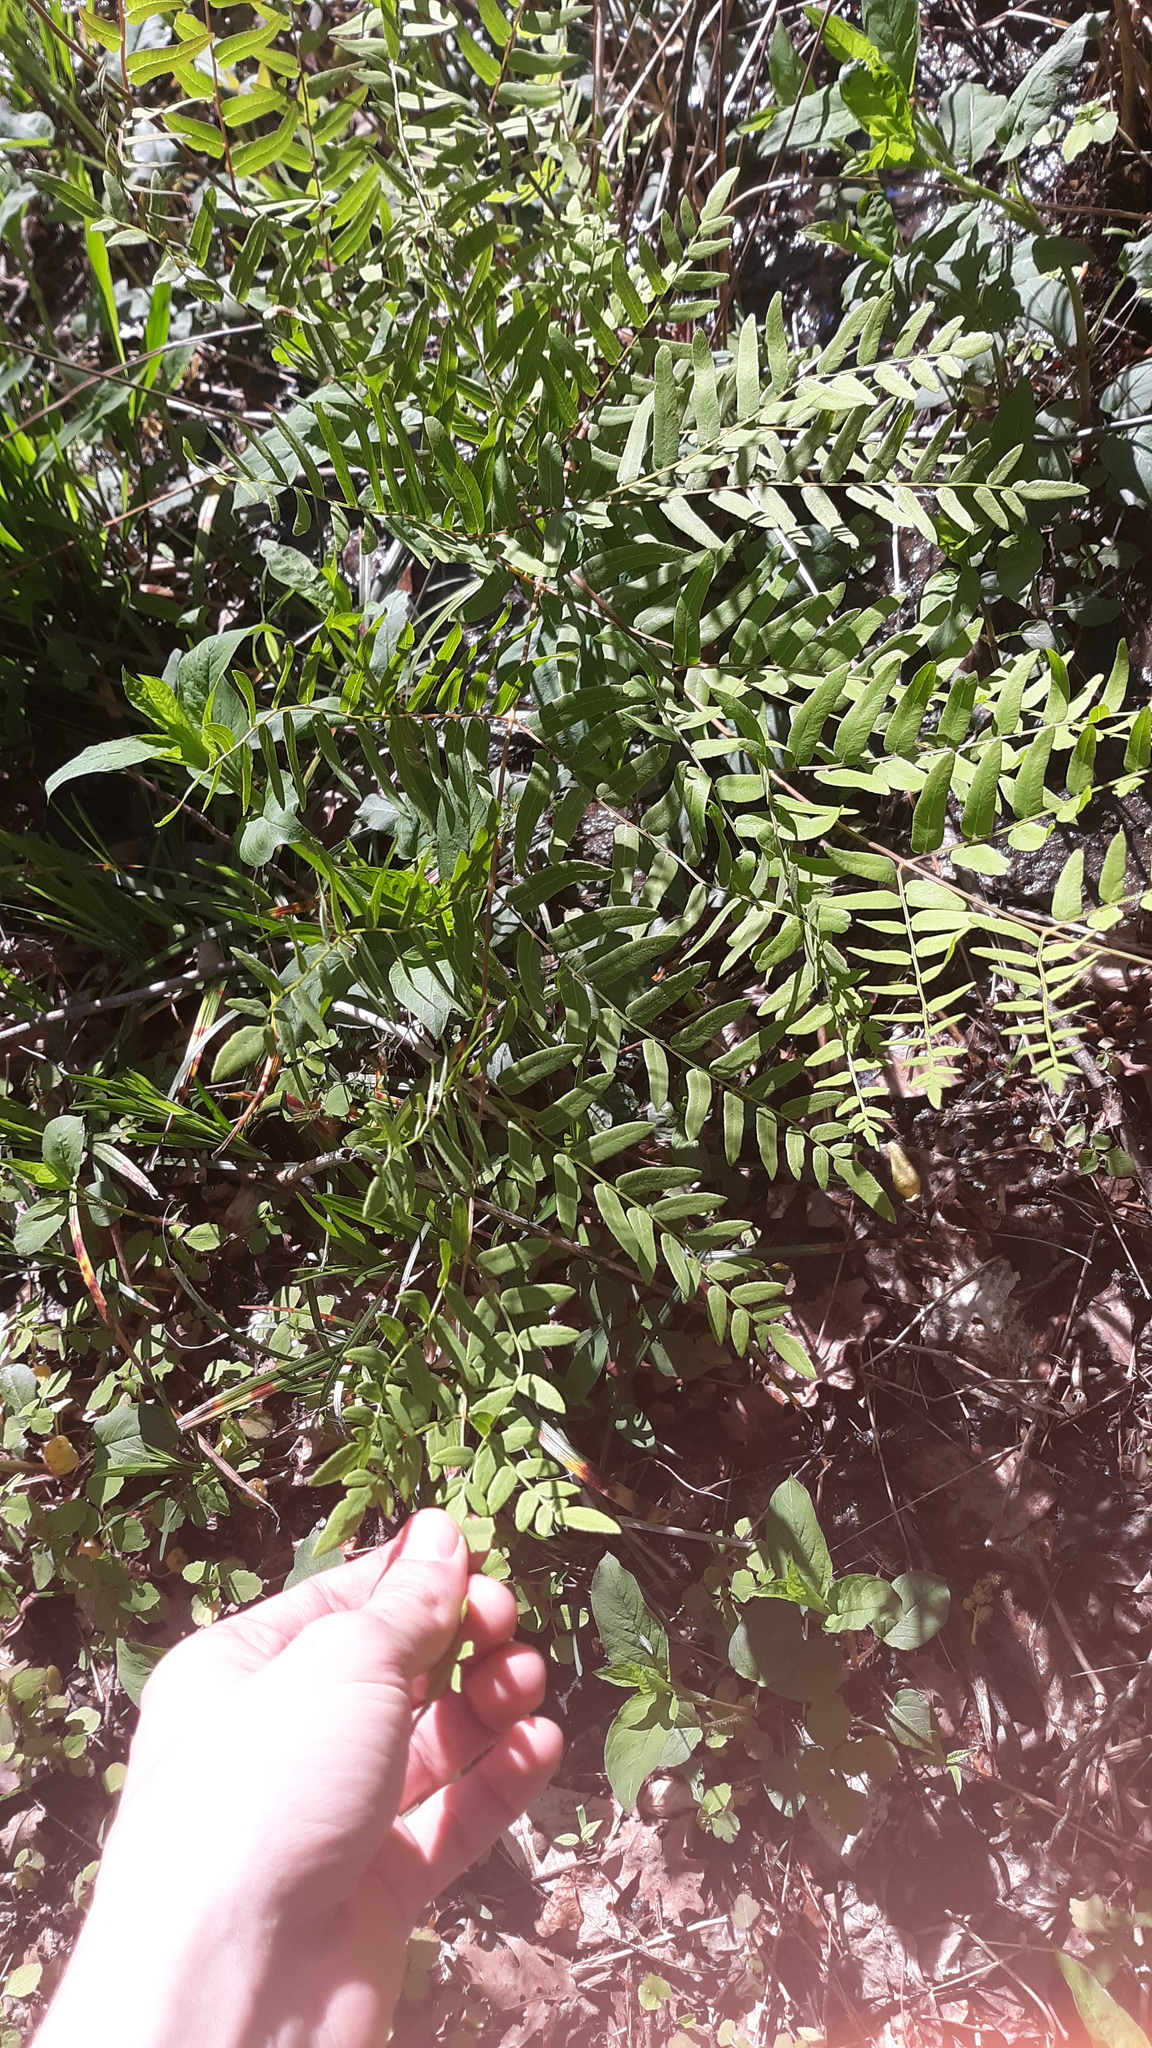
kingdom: Plantae
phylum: Tracheophyta
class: Polypodiopsida
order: Osmundales
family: Osmundaceae
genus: Osmunda
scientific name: Osmunda spectabilis
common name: American royal fern
